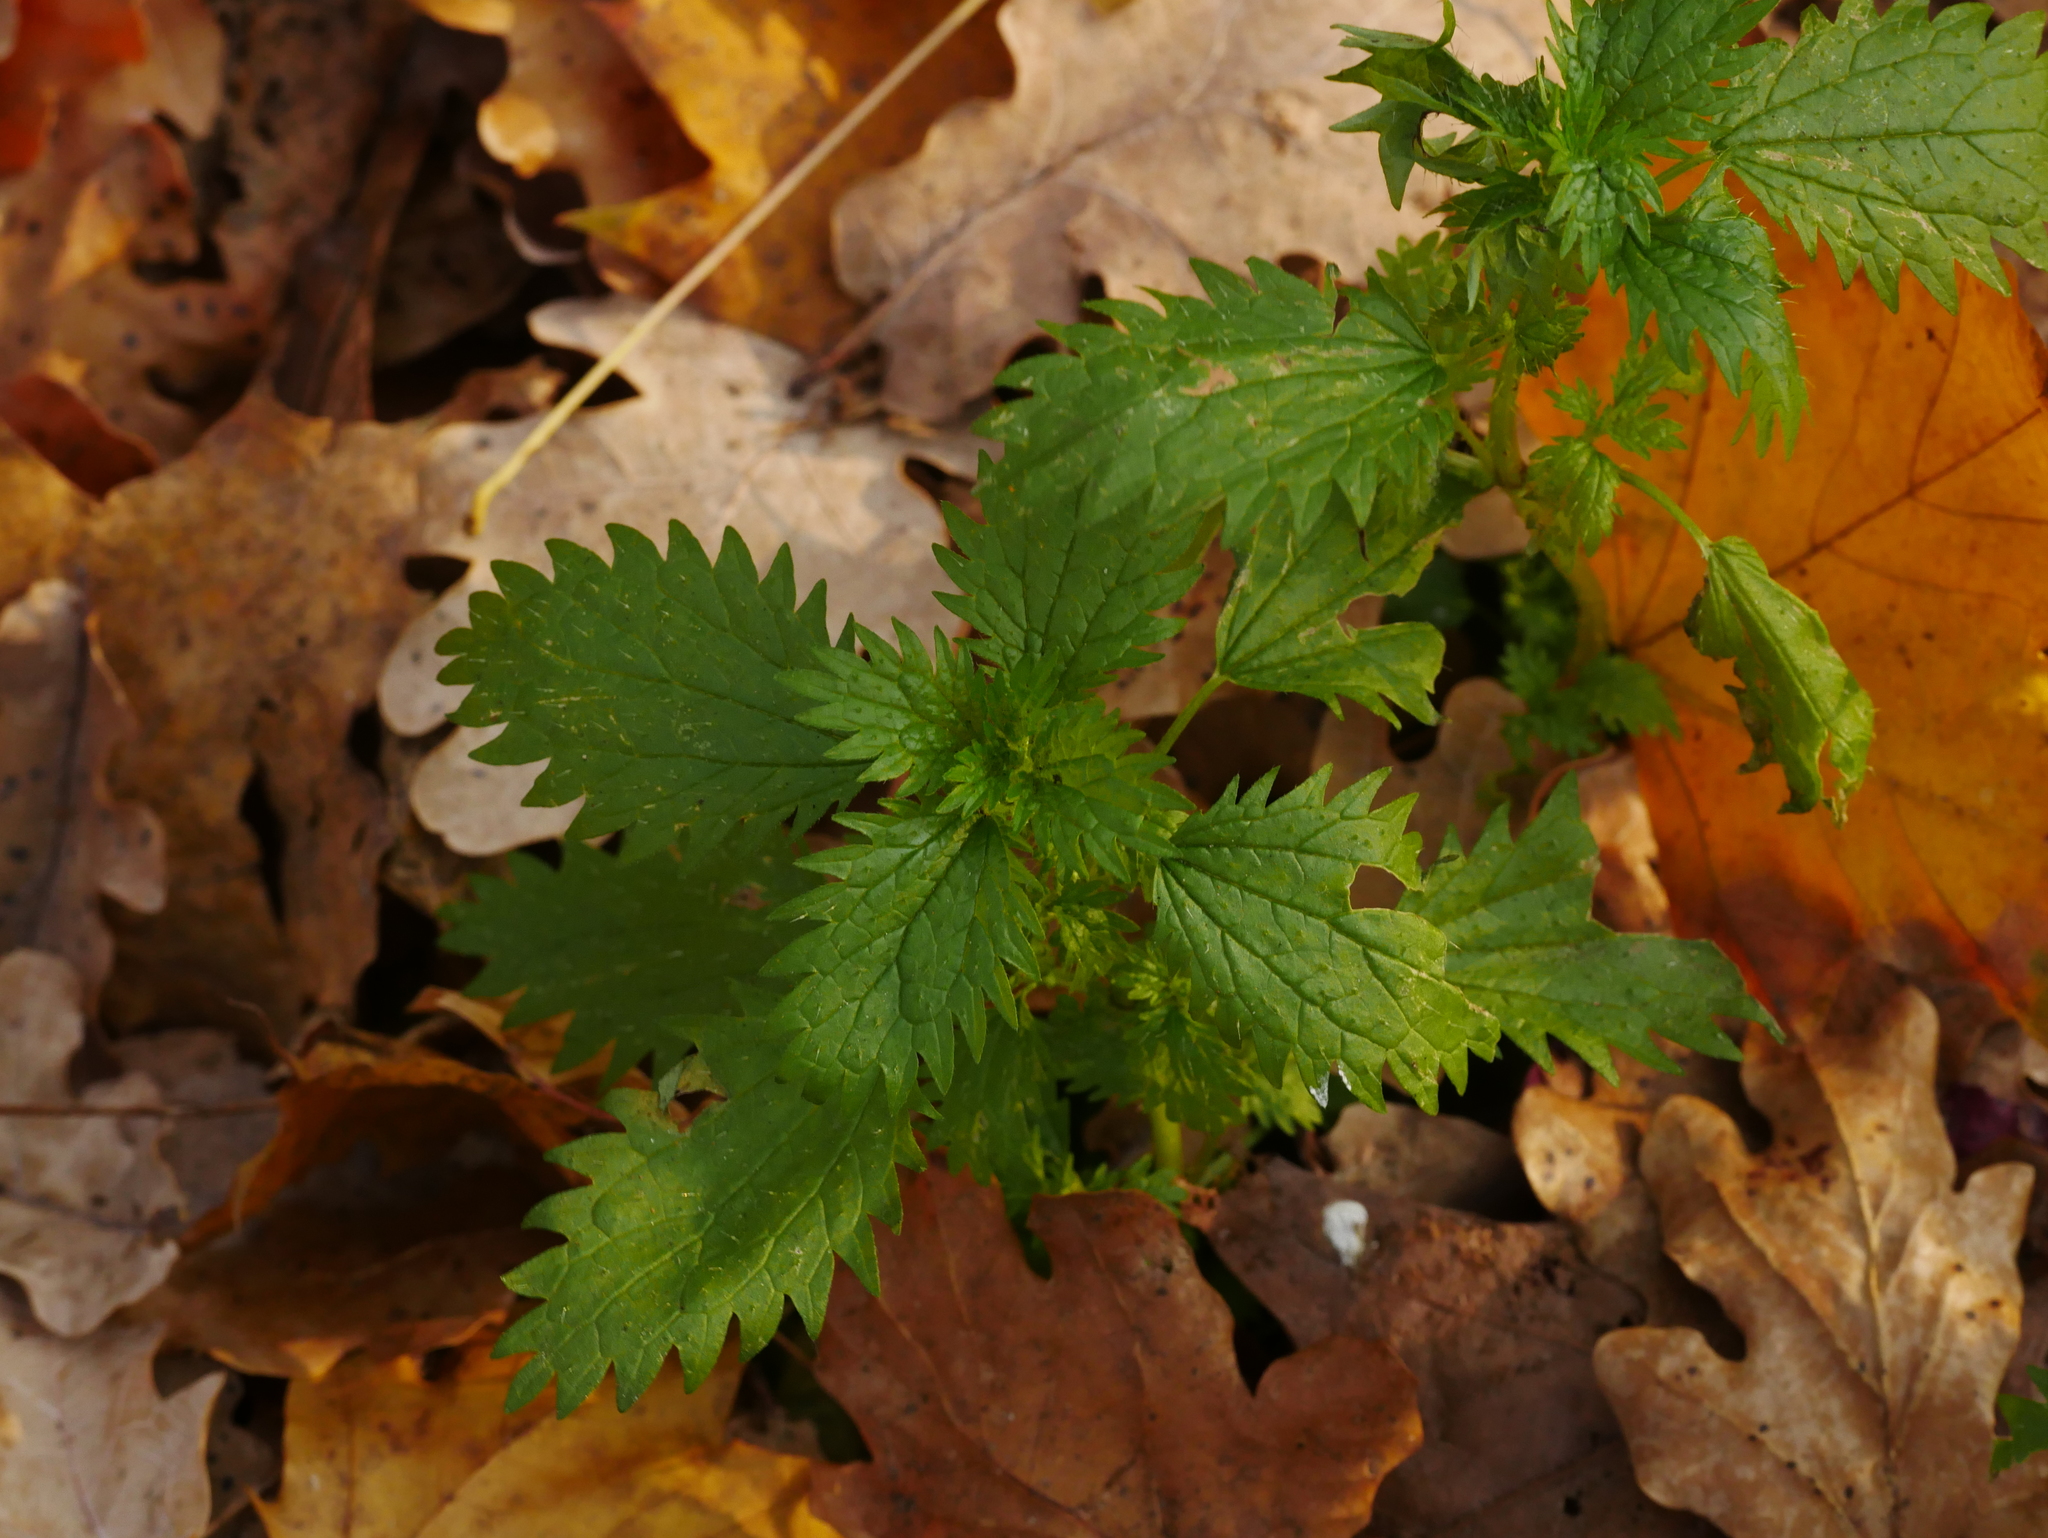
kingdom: Plantae
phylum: Tracheophyta
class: Magnoliopsida
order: Rosales
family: Urticaceae
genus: Urtica
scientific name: Urtica urens
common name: Dwarf nettle
